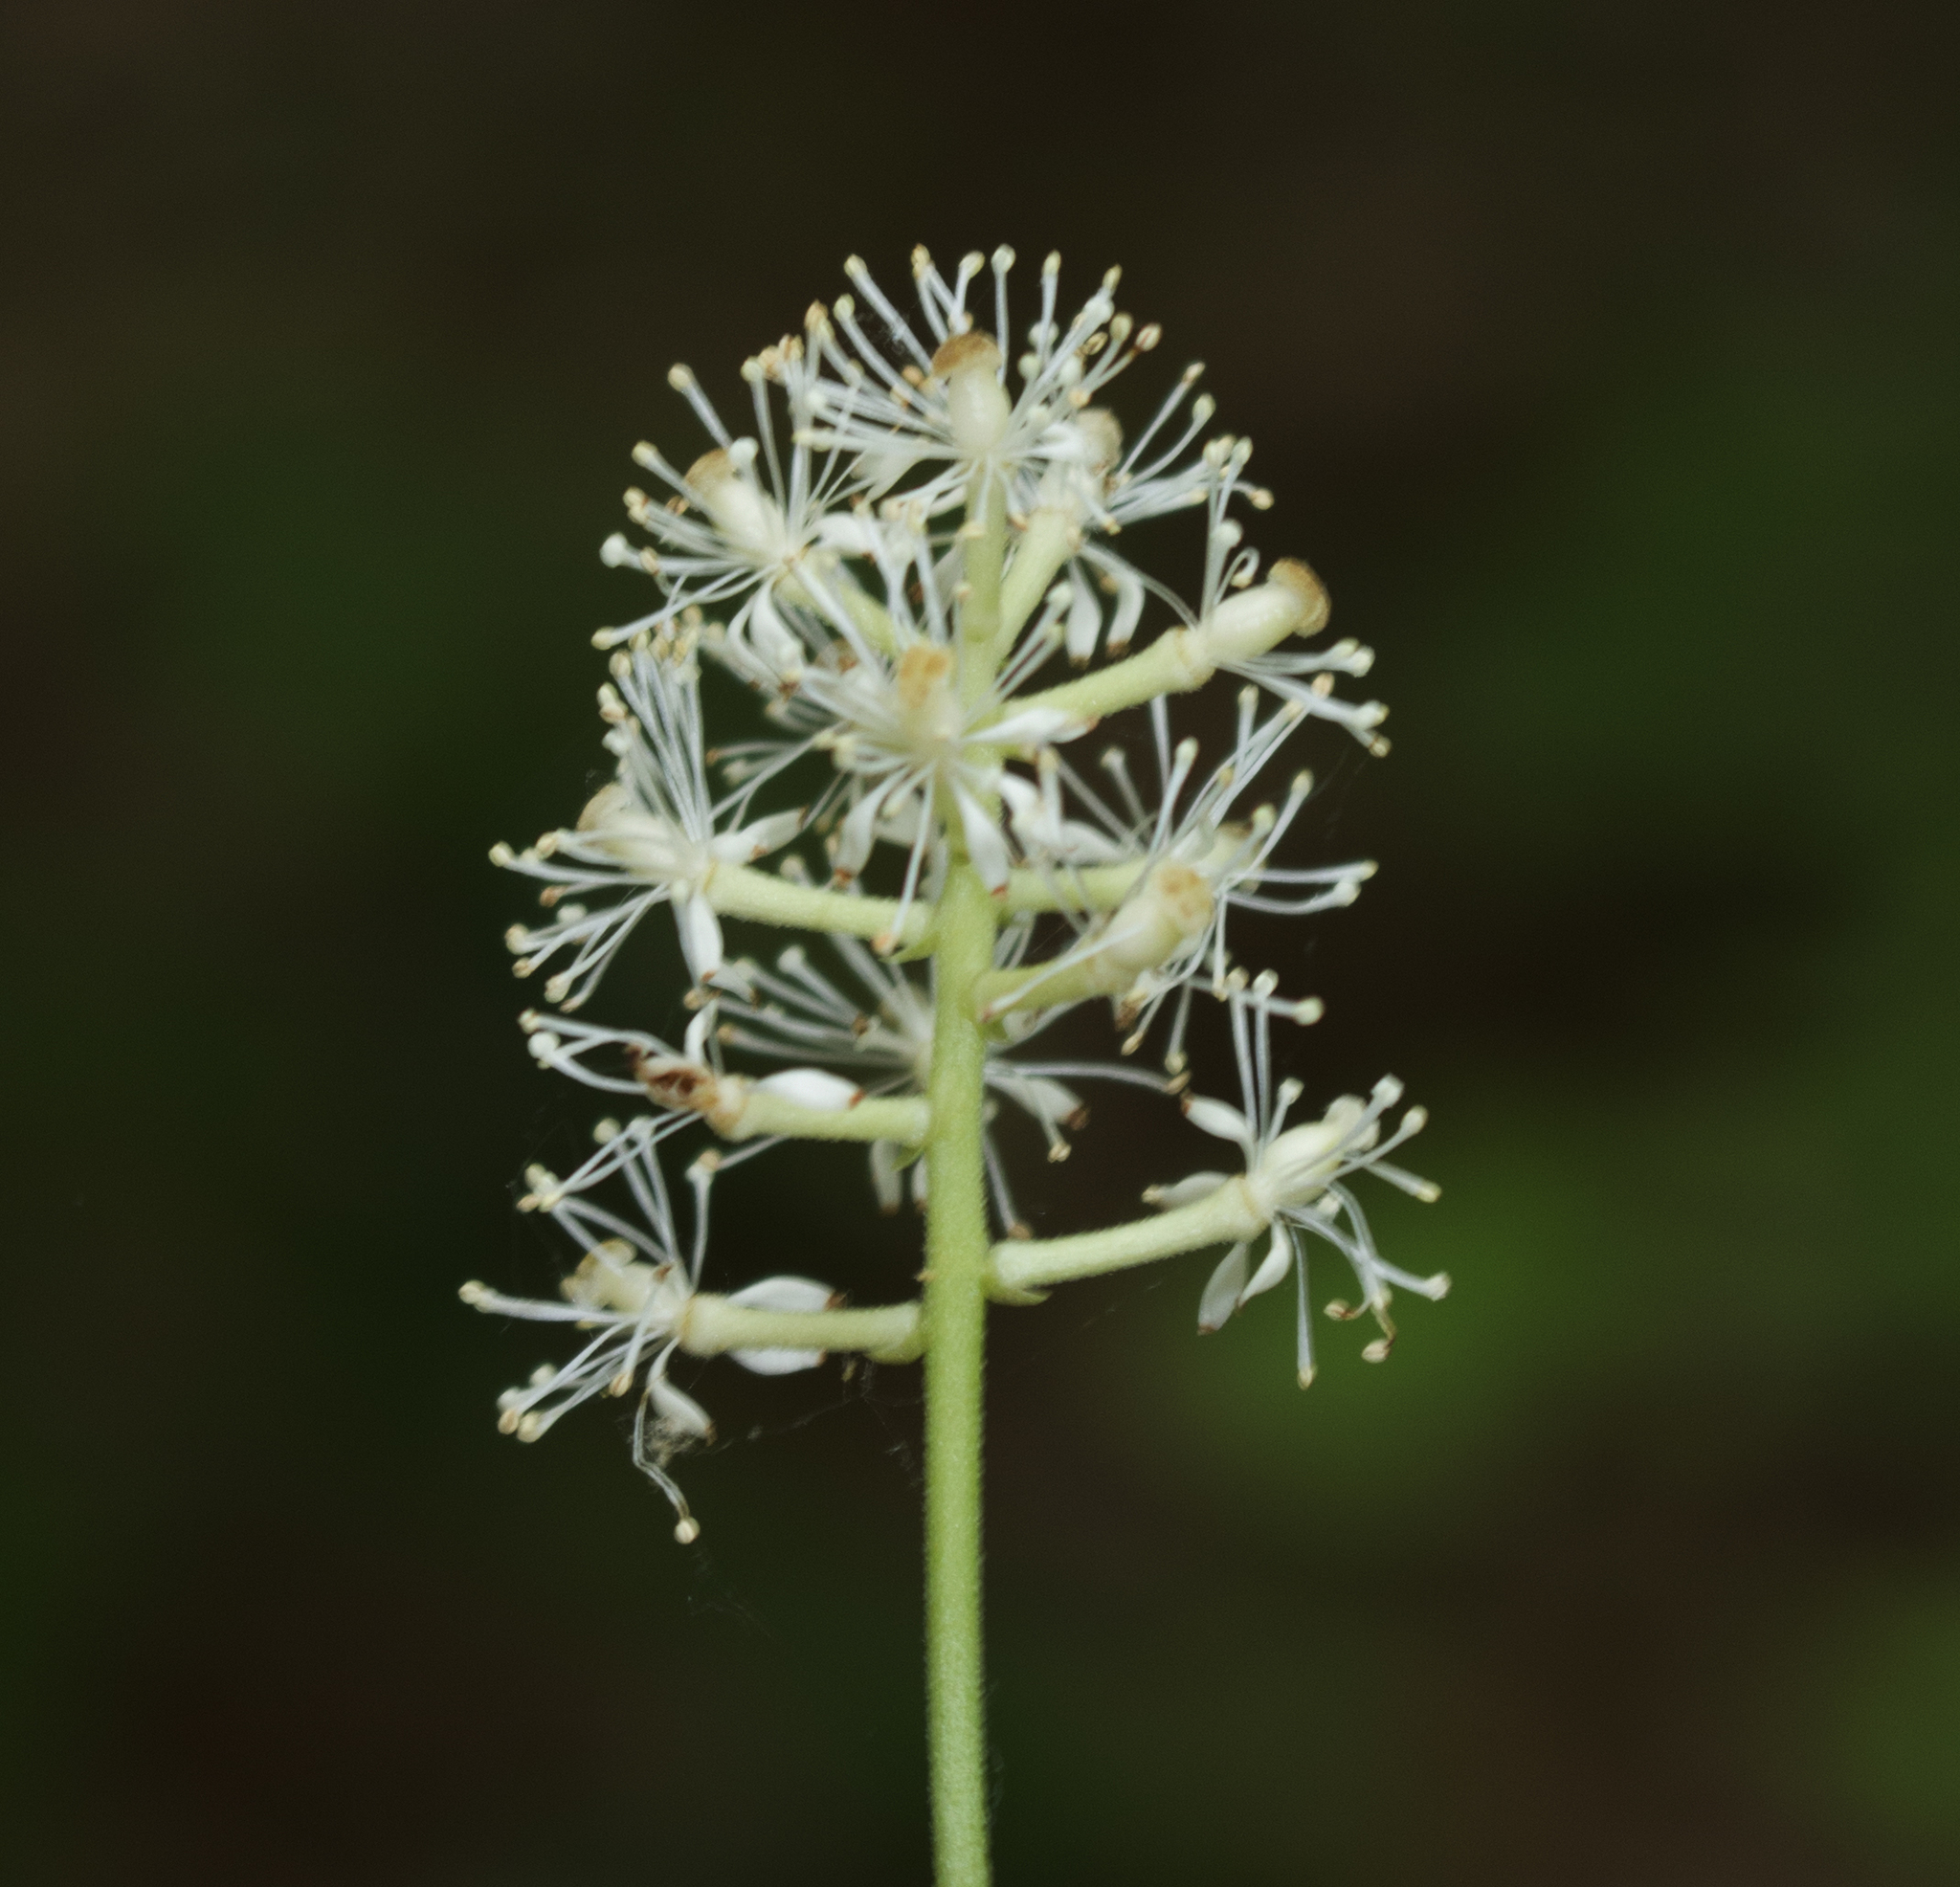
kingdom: Plantae
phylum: Tracheophyta
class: Magnoliopsida
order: Ranunculales
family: Ranunculaceae
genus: Actaea
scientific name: Actaea pachypoda
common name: Doll's-eyes
